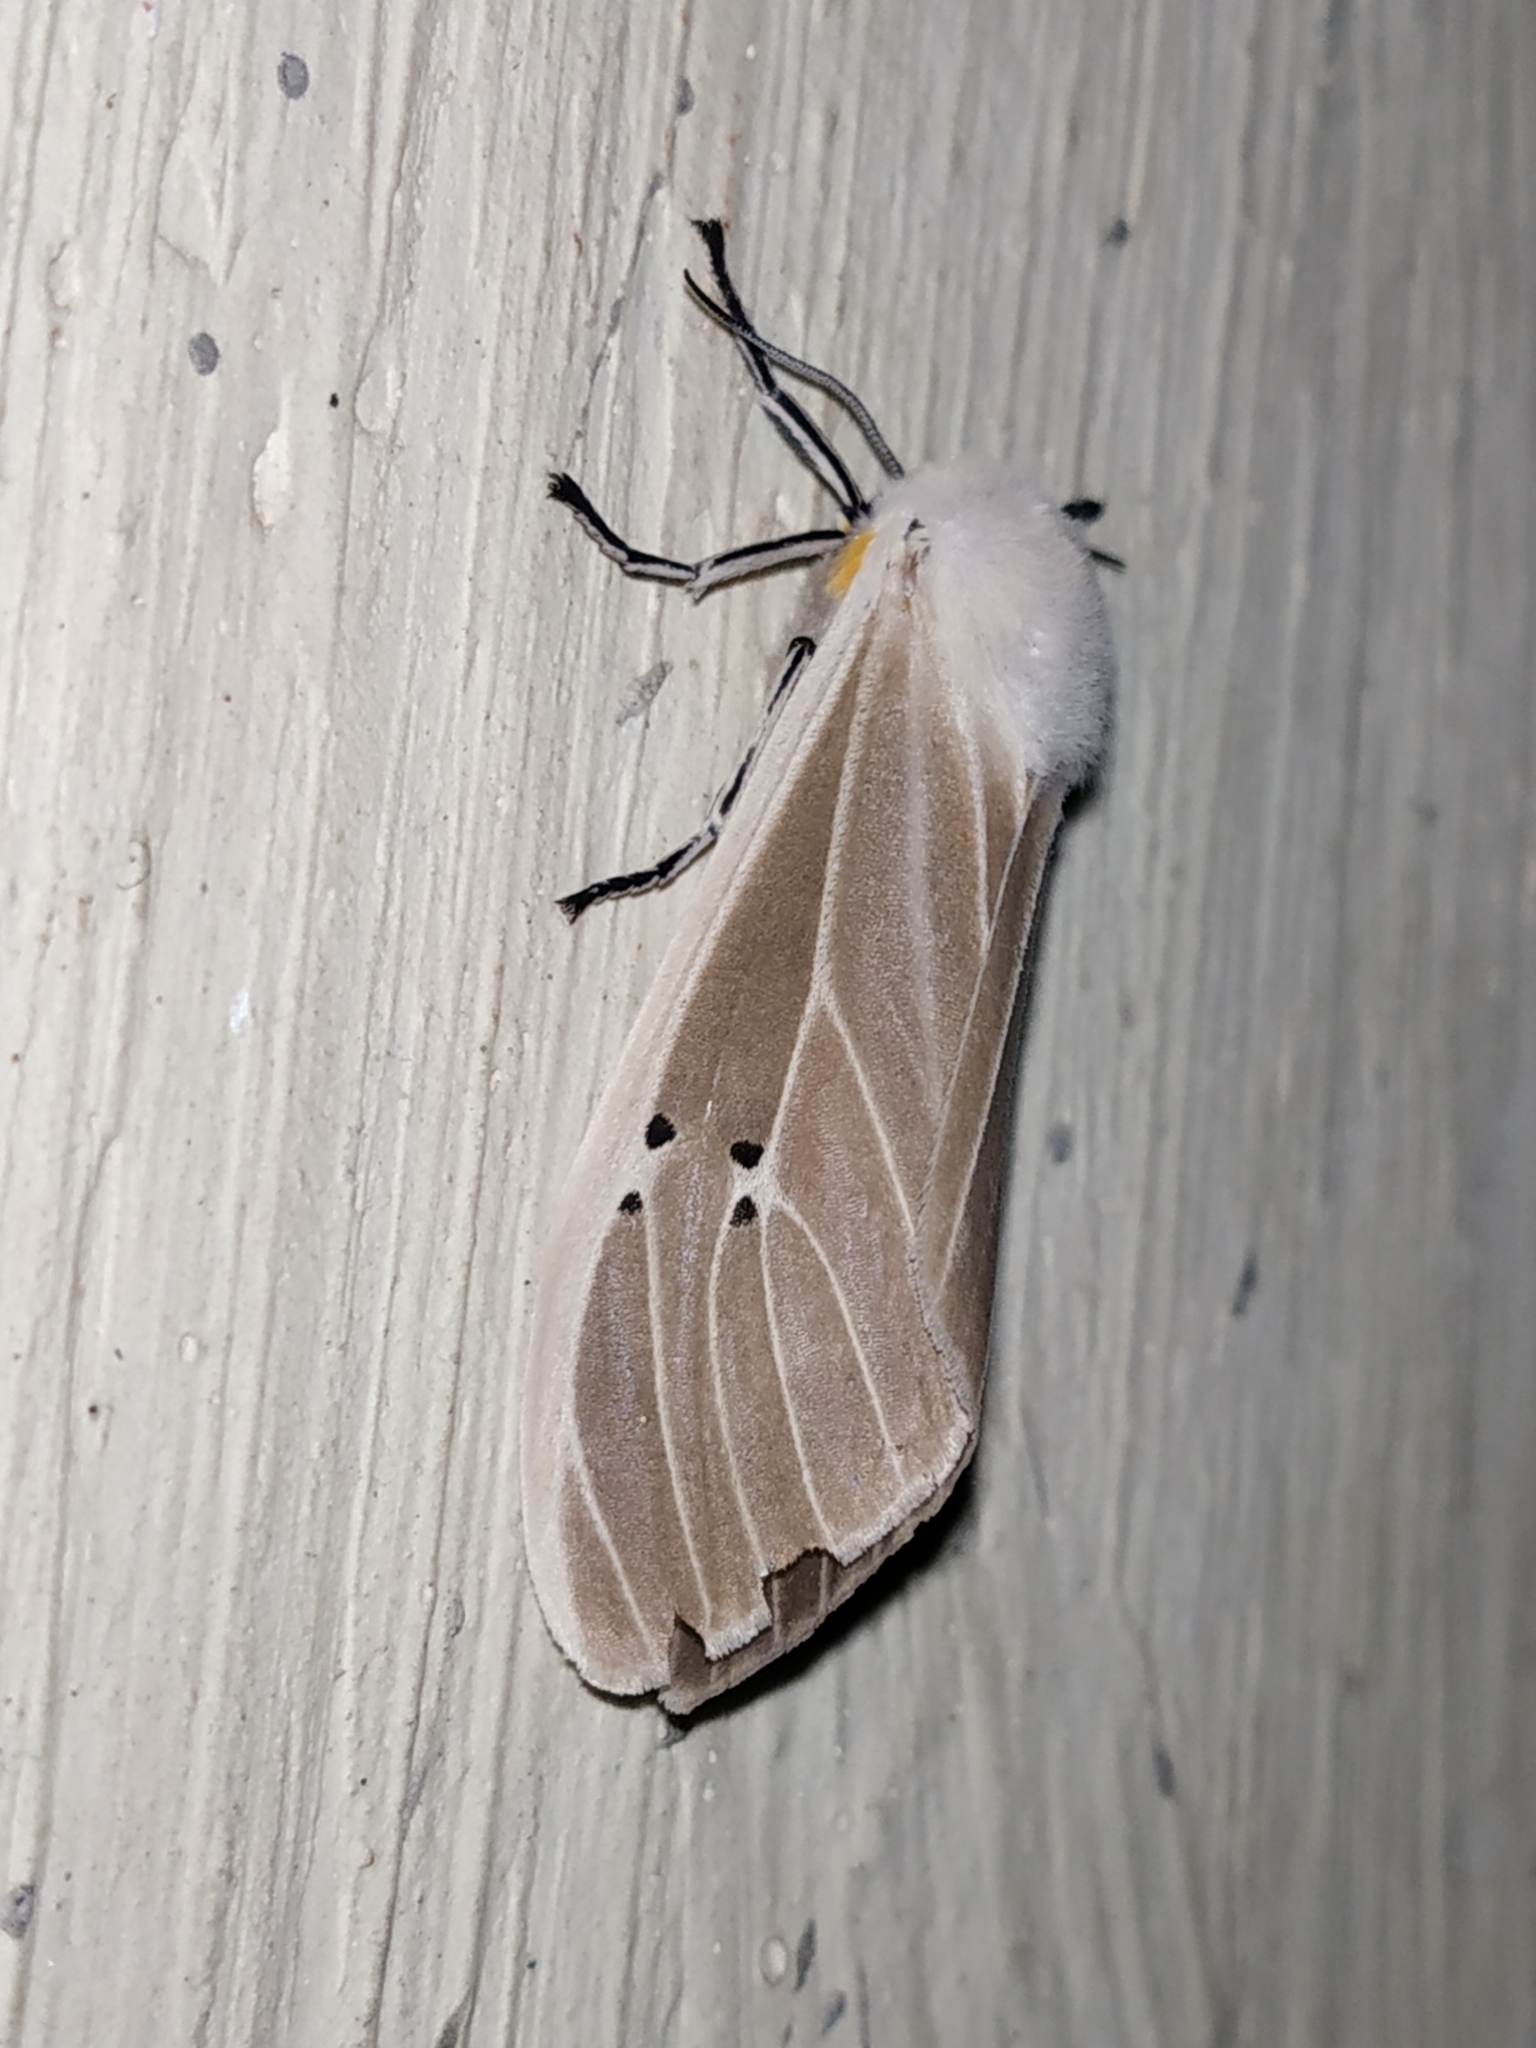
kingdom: Animalia
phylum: Arthropoda
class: Insecta
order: Lepidoptera
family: Erebidae
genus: Creatonotos
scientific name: Creatonotos transiens
